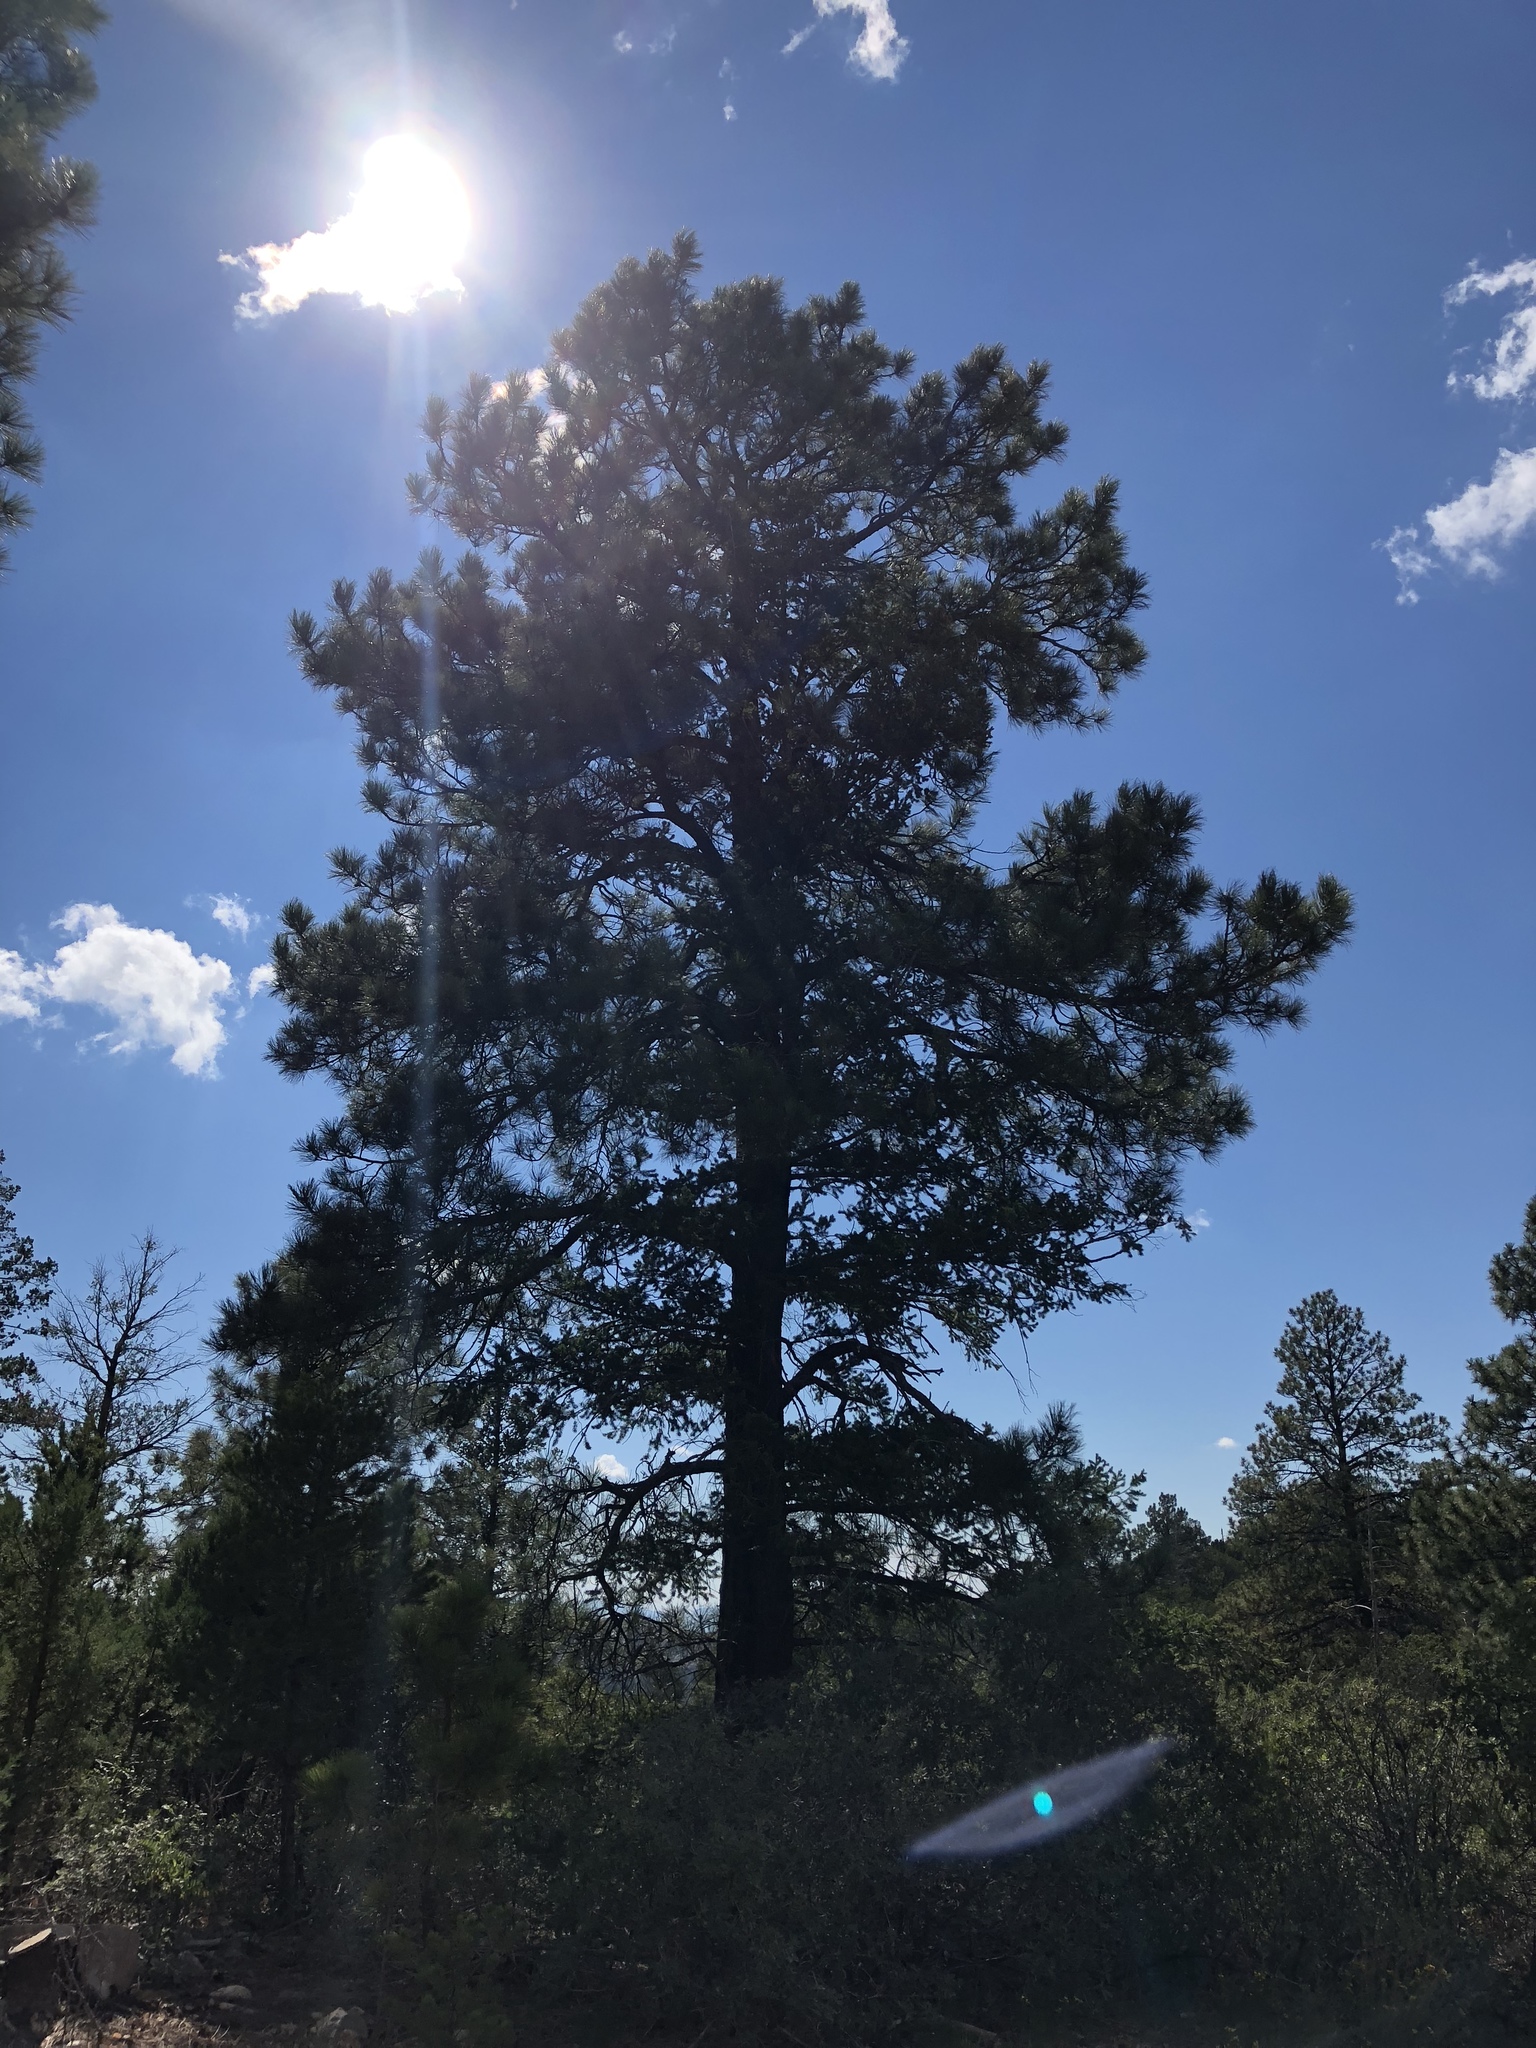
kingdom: Plantae
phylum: Tracheophyta
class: Pinopsida
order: Pinales
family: Pinaceae
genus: Pinus
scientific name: Pinus ponderosa
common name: Western yellow-pine
